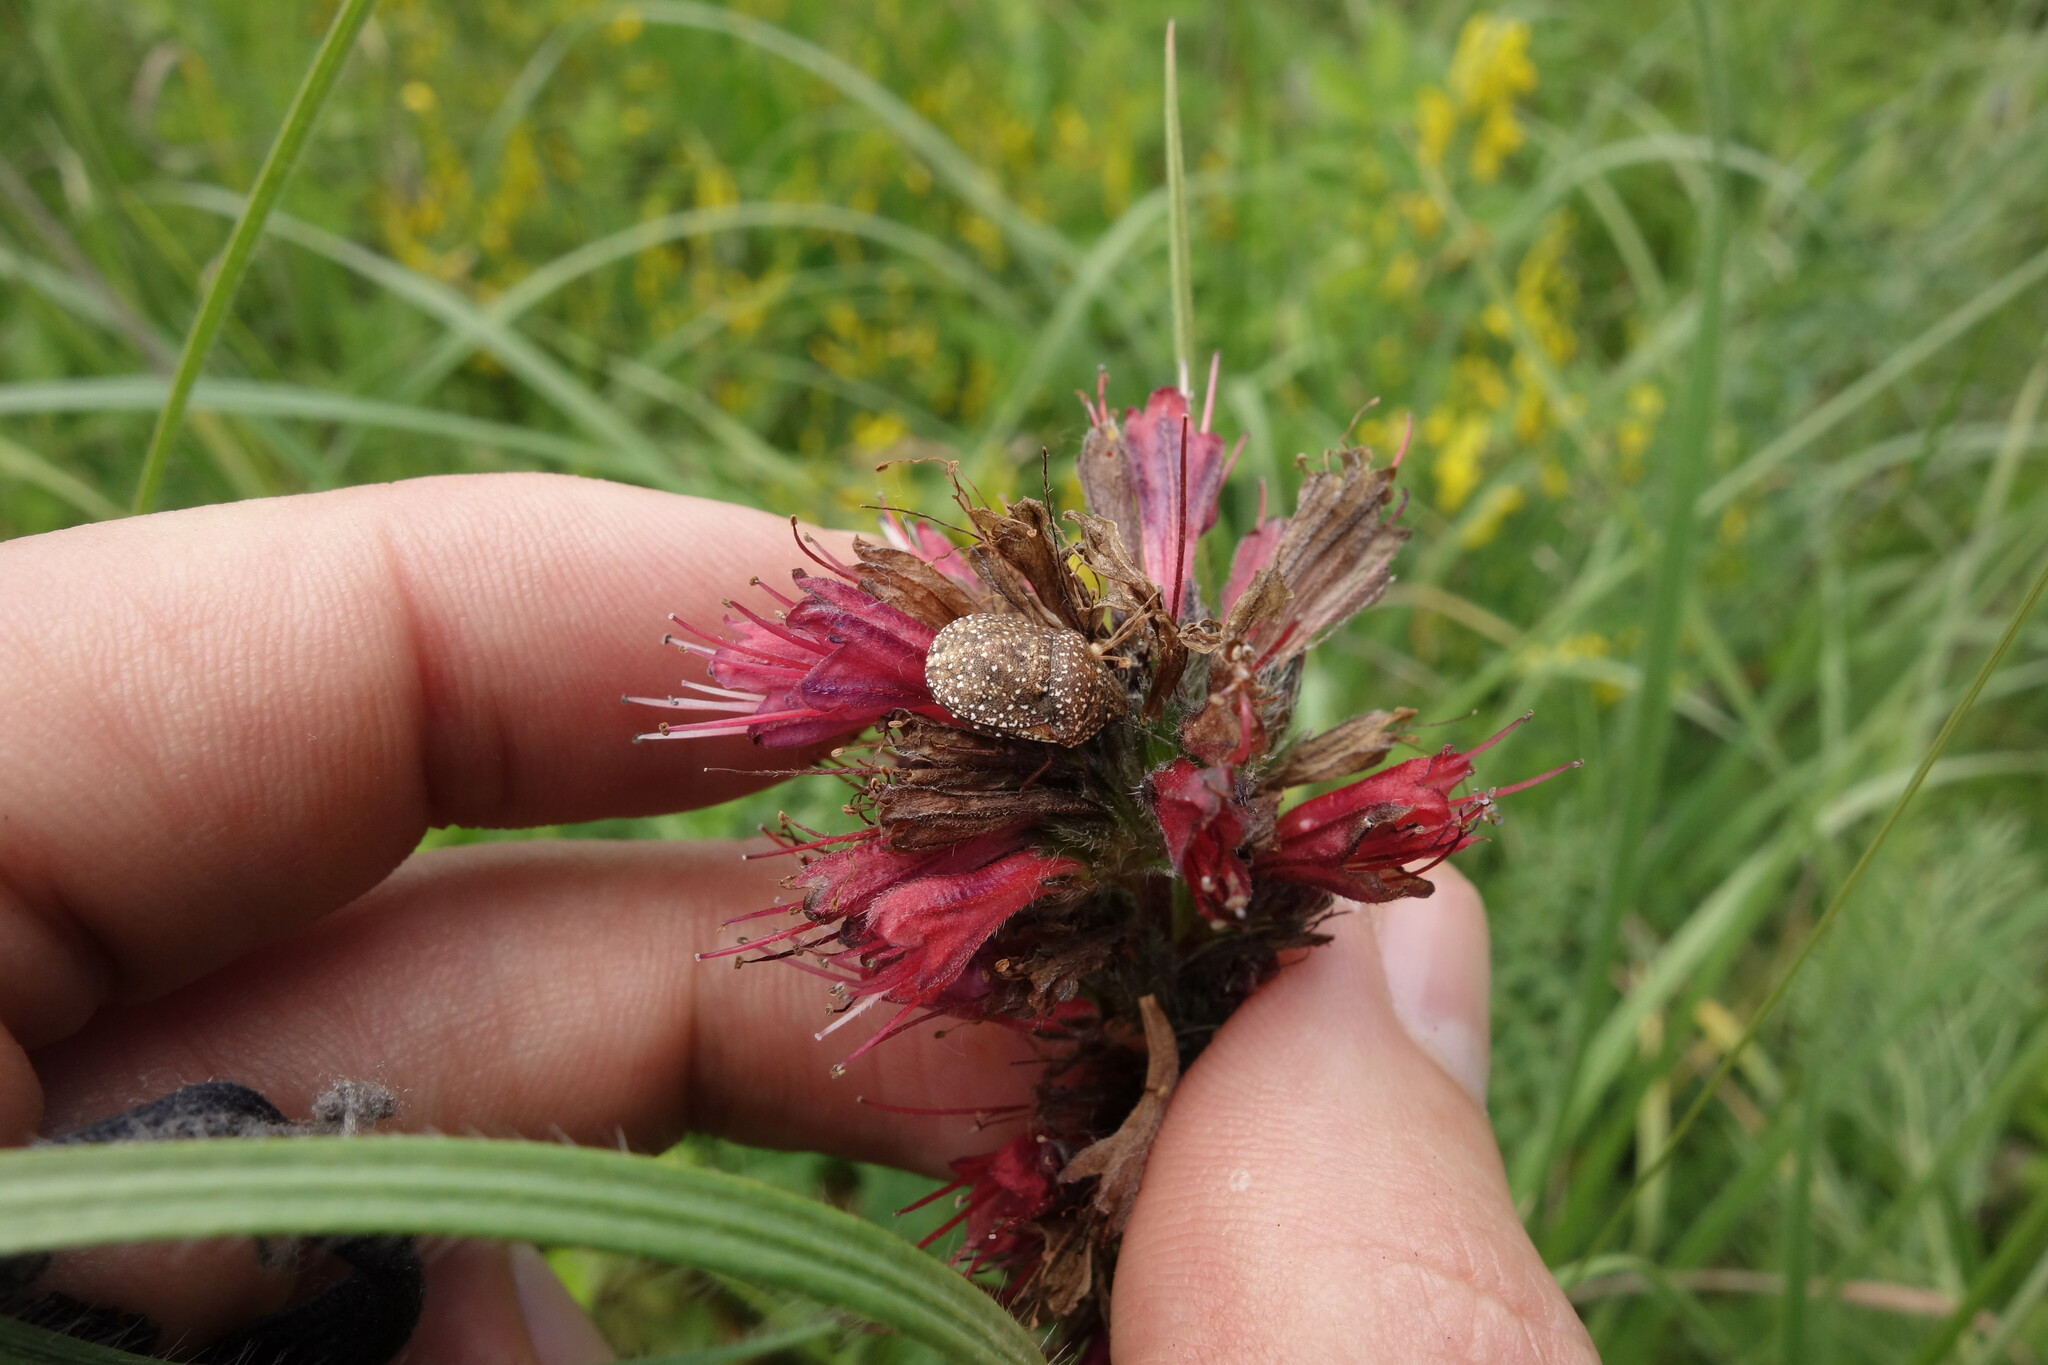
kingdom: Animalia
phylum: Arthropoda
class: Insecta
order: Hemiptera
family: Scutelleridae
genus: Psacasta
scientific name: Psacasta exanthematica
